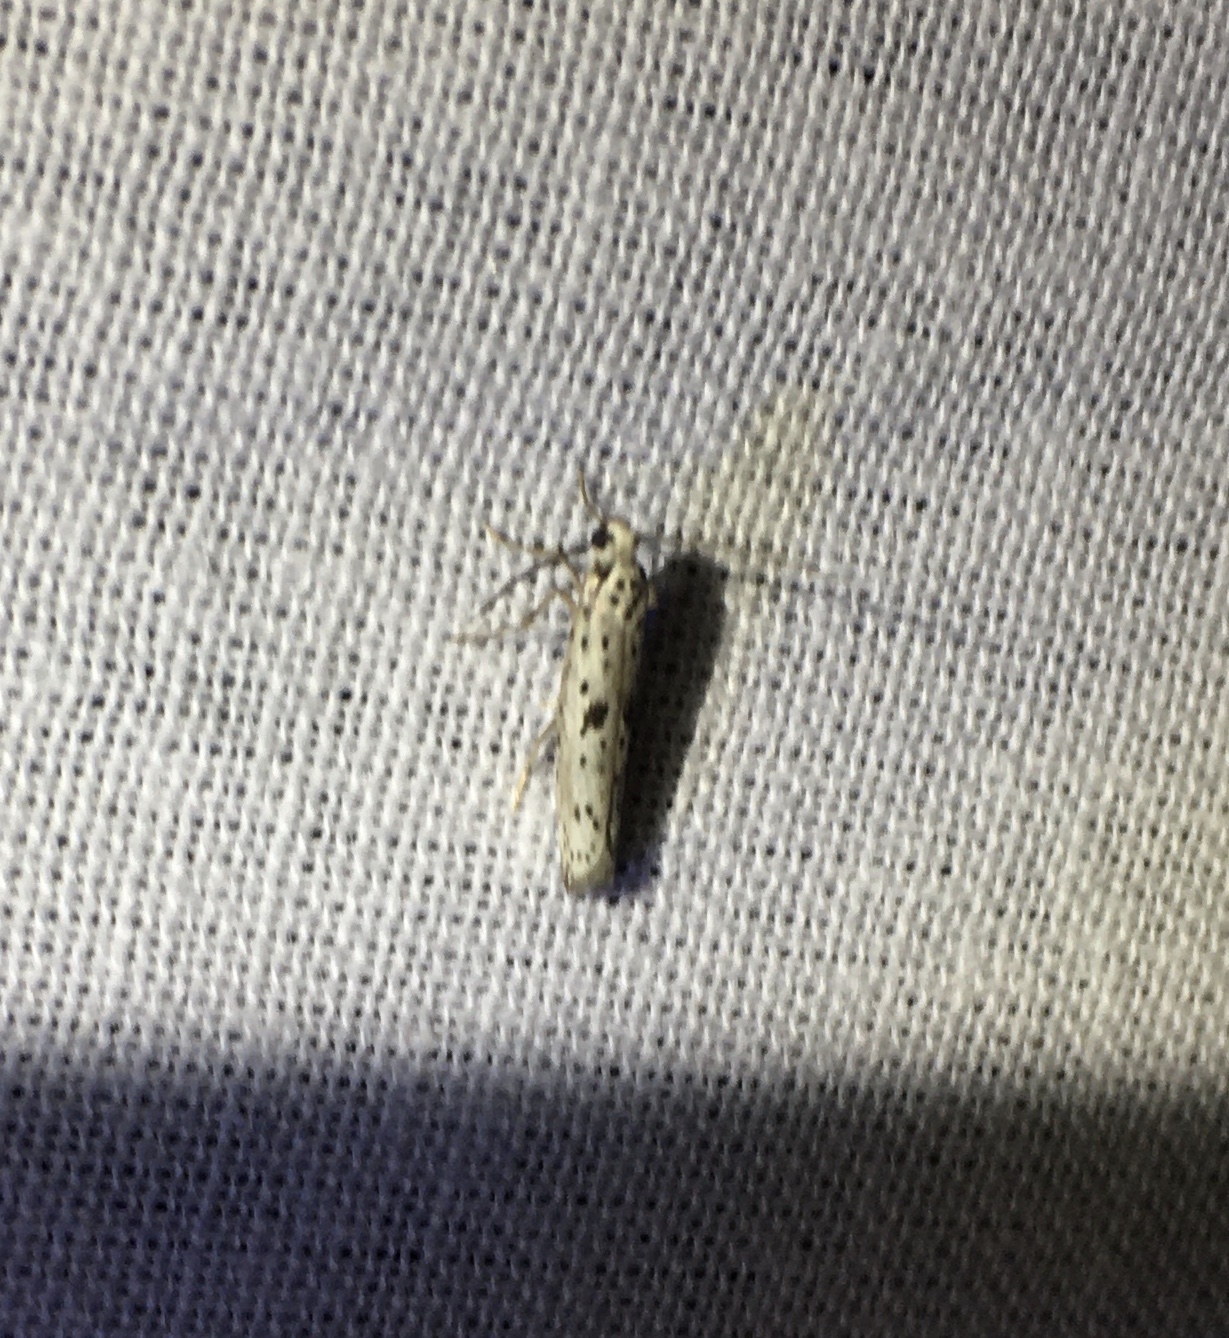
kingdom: Animalia
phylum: Arthropoda
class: Insecta
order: Lepidoptera
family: Yponomeutidae
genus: Yponomeuta
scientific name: Yponomeuta plumbella
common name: Black-tipped ermine
